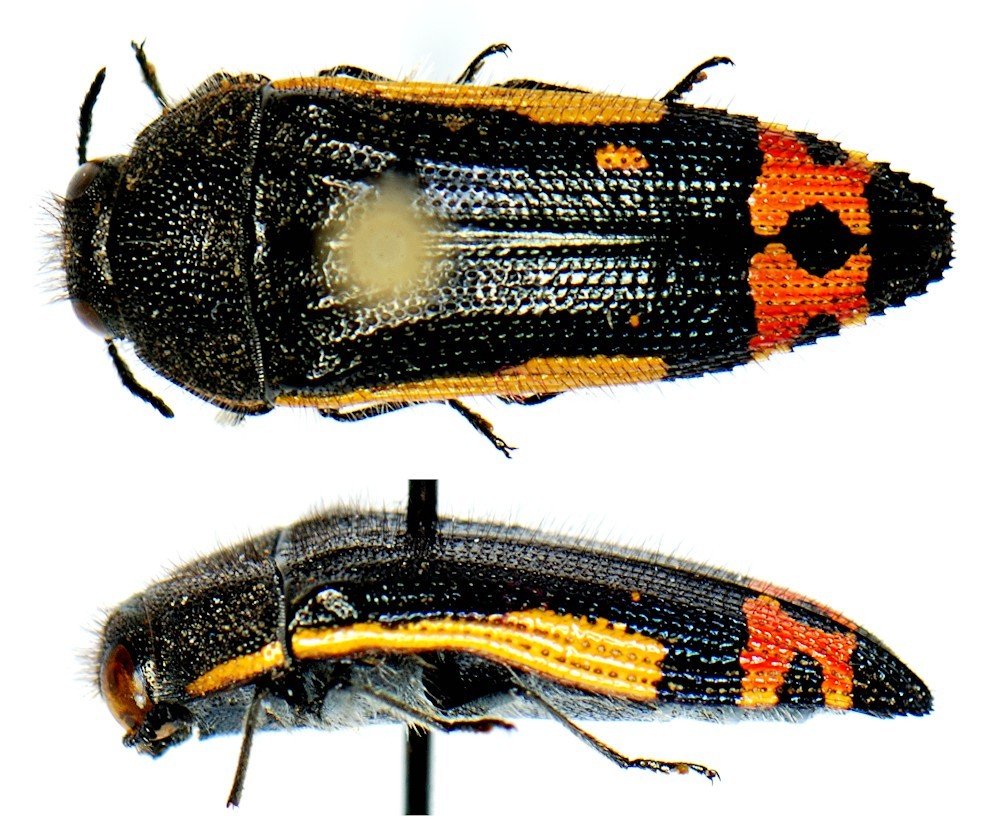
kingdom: Animalia
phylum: Arthropoda
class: Insecta
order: Coleoptera
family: Buprestidae
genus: Acmaeodera
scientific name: Acmaeodera flavomarginata
